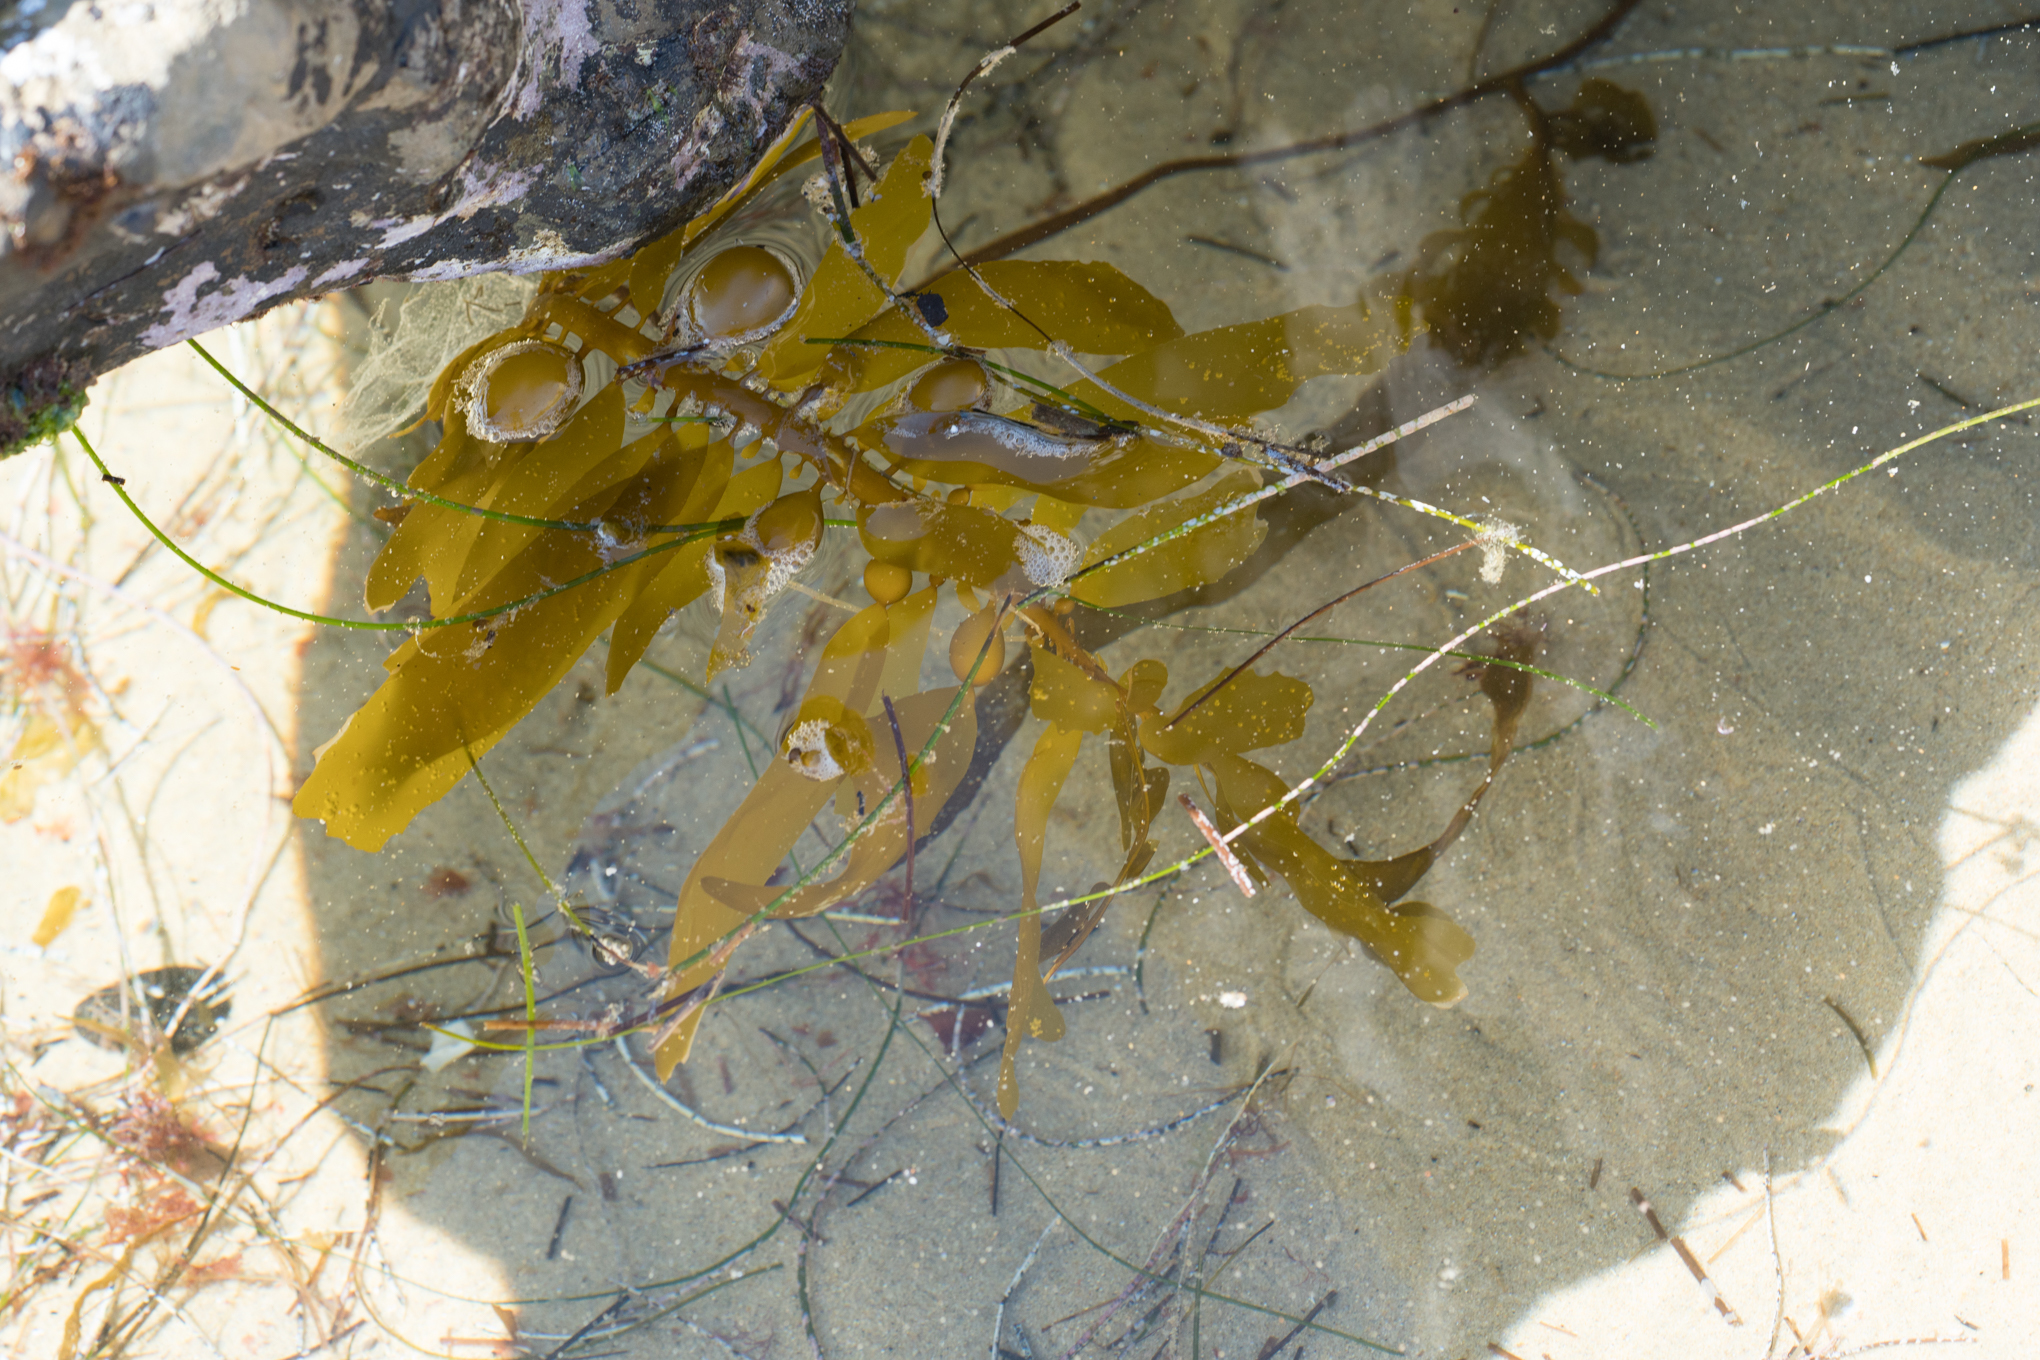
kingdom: Chromista
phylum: Ochrophyta
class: Phaeophyceae
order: Laminariales
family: Laminariaceae
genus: Macrocystis
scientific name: Macrocystis pyrifera
